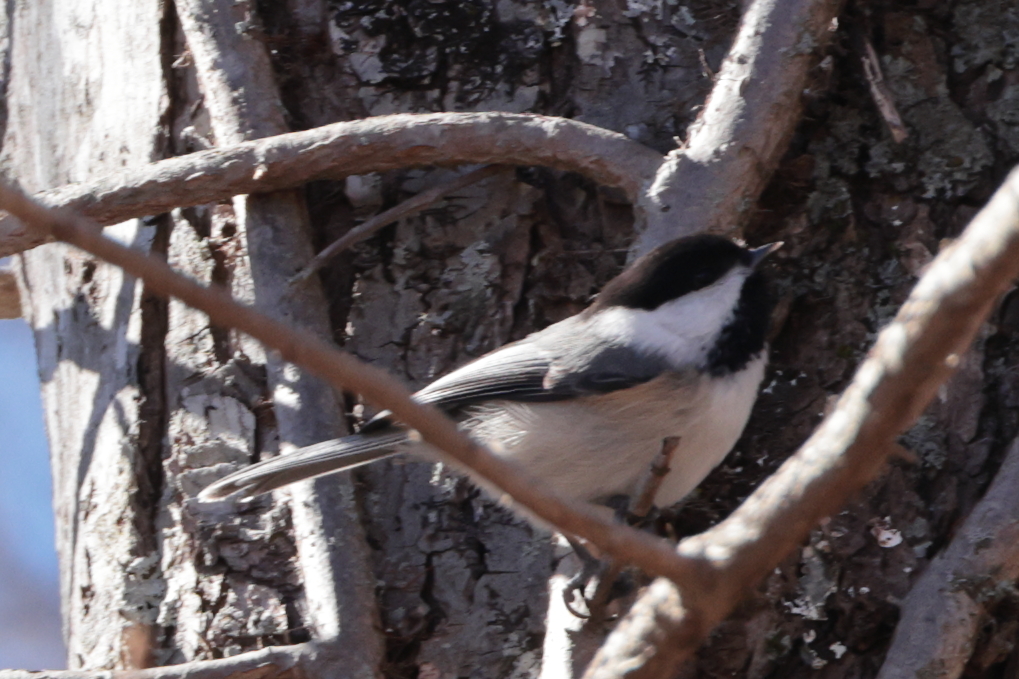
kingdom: Animalia
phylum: Chordata
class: Aves
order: Passeriformes
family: Paridae
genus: Poecile
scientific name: Poecile atricapillus
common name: Black-capped chickadee
